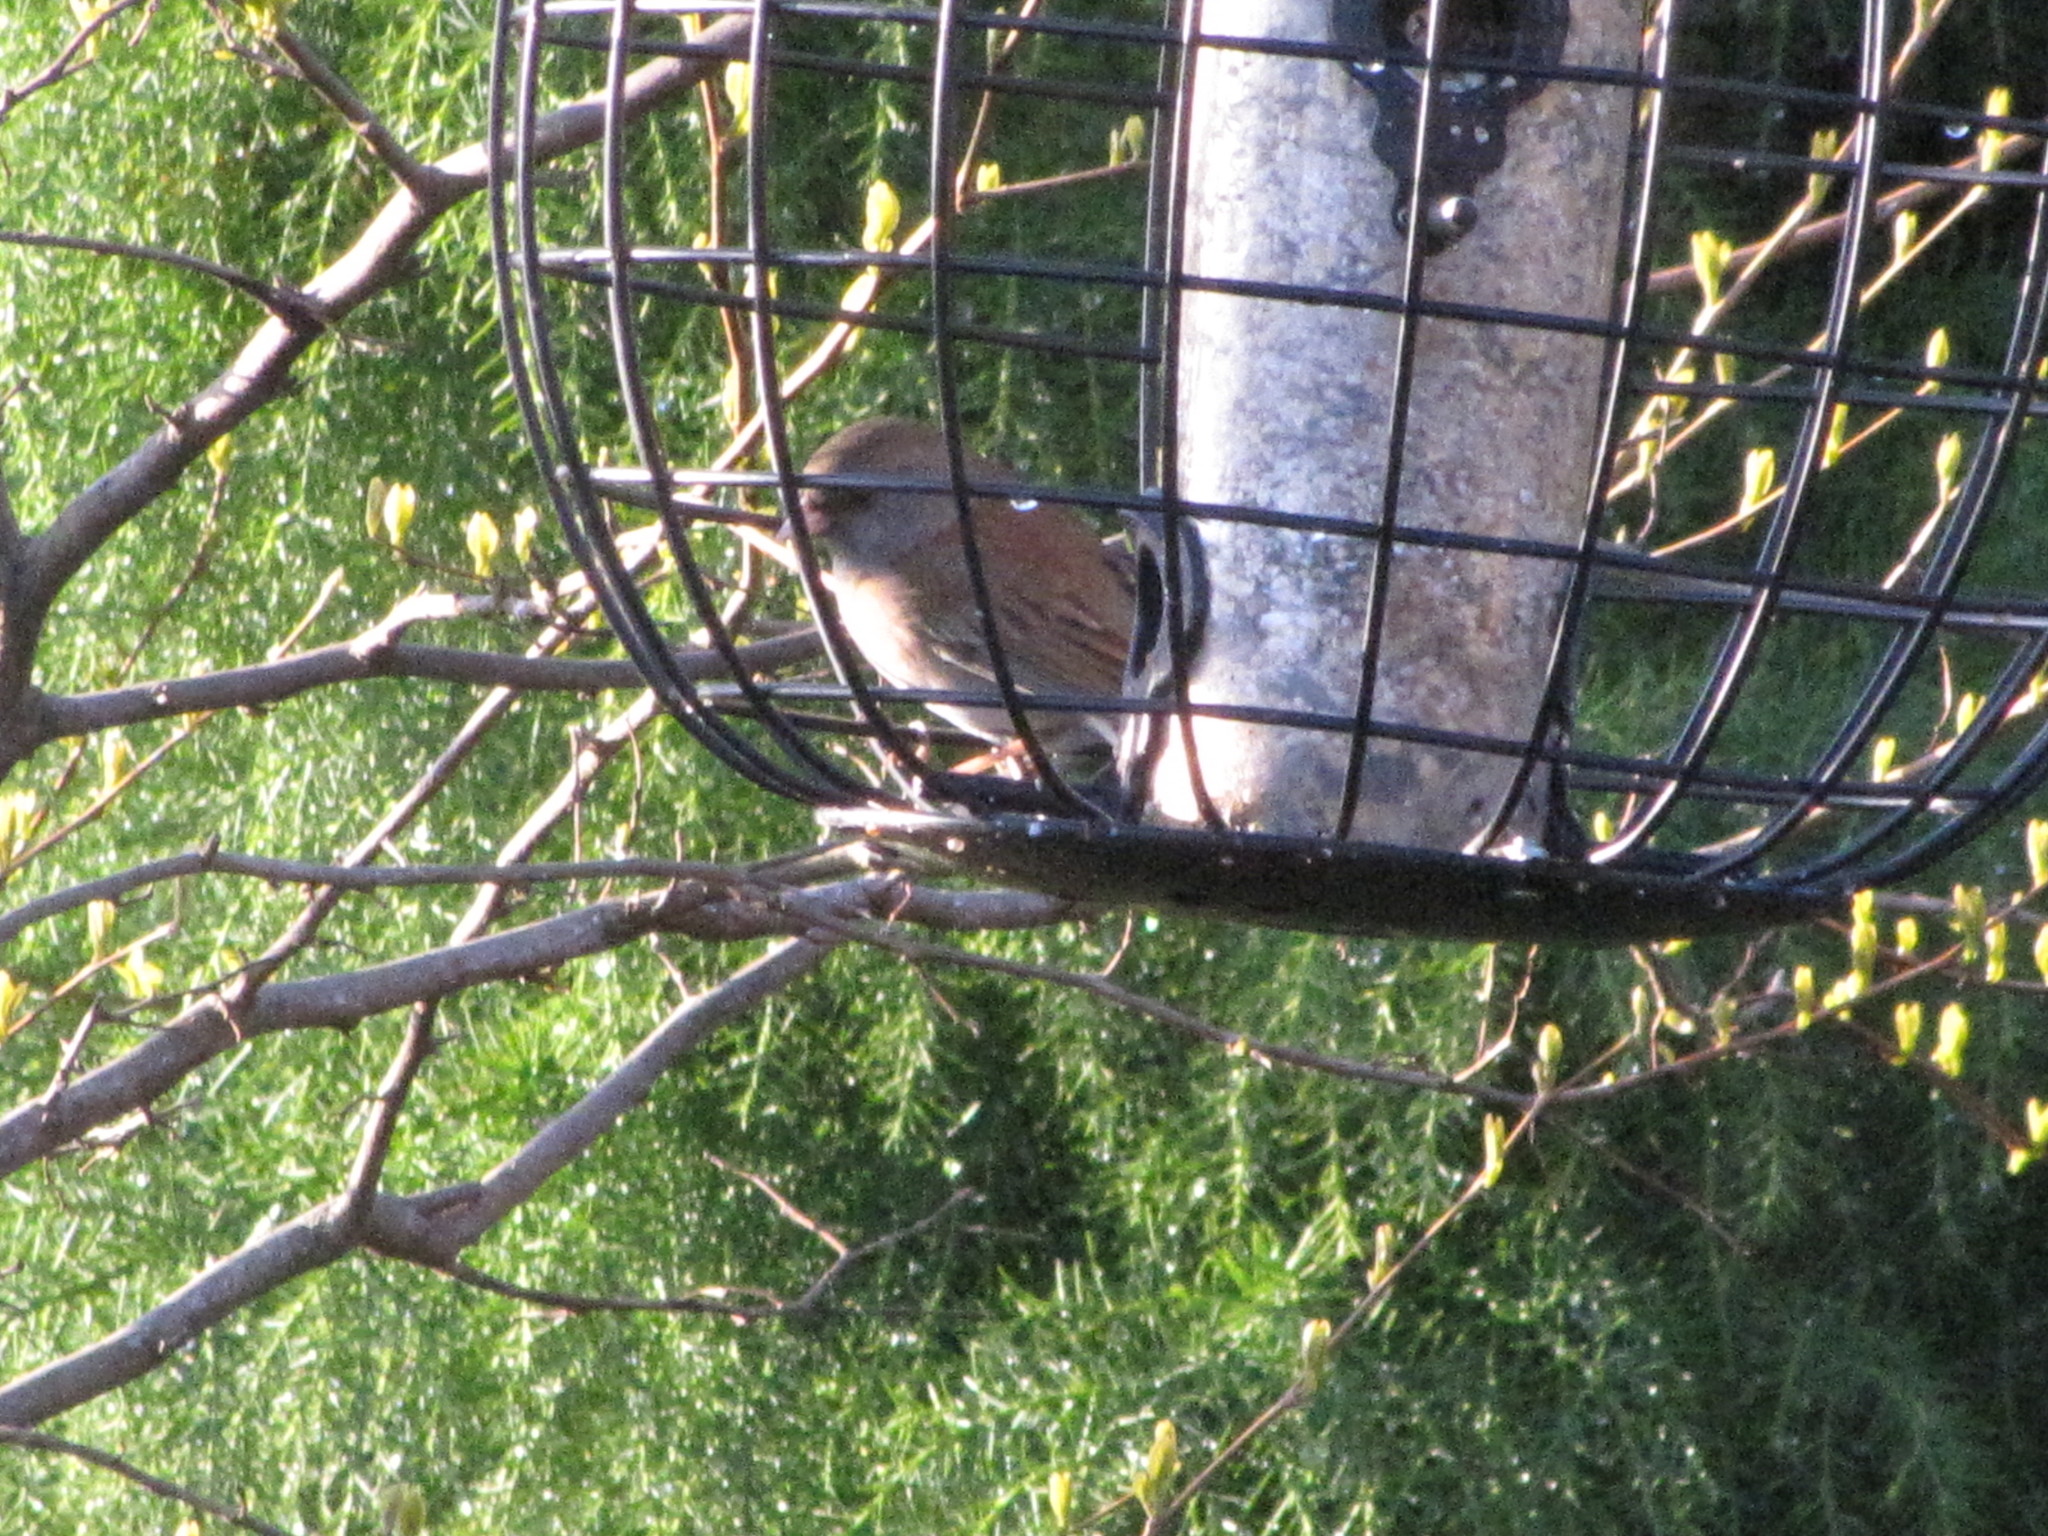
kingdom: Animalia
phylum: Chordata
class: Aves
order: Passeriformes
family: Passerellidae
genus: Junco
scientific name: Junco hyemalis
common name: Dark-eyed junco
